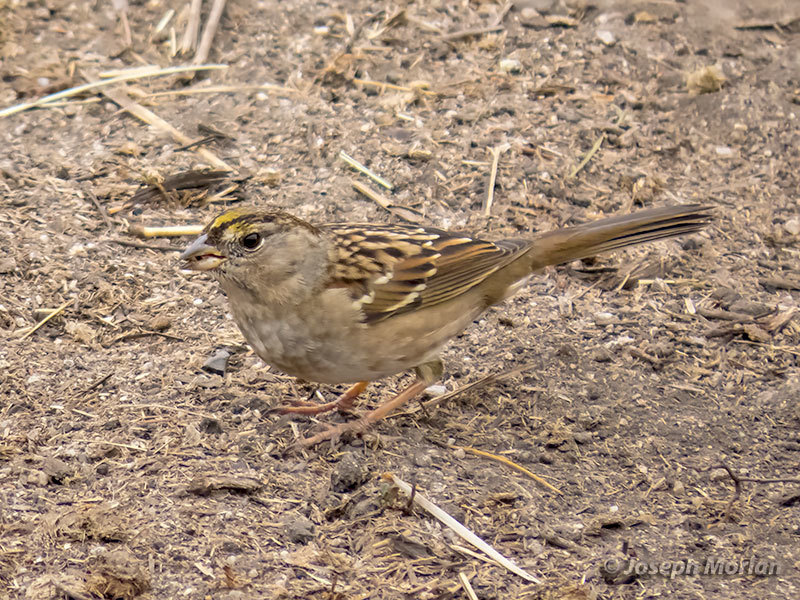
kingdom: Animalia
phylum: Chordata
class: Aves
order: Passeriformes
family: Passerellidae
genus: Zonotrichia
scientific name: Zonotrichia atricapilla
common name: Golden-crowned sparrow
